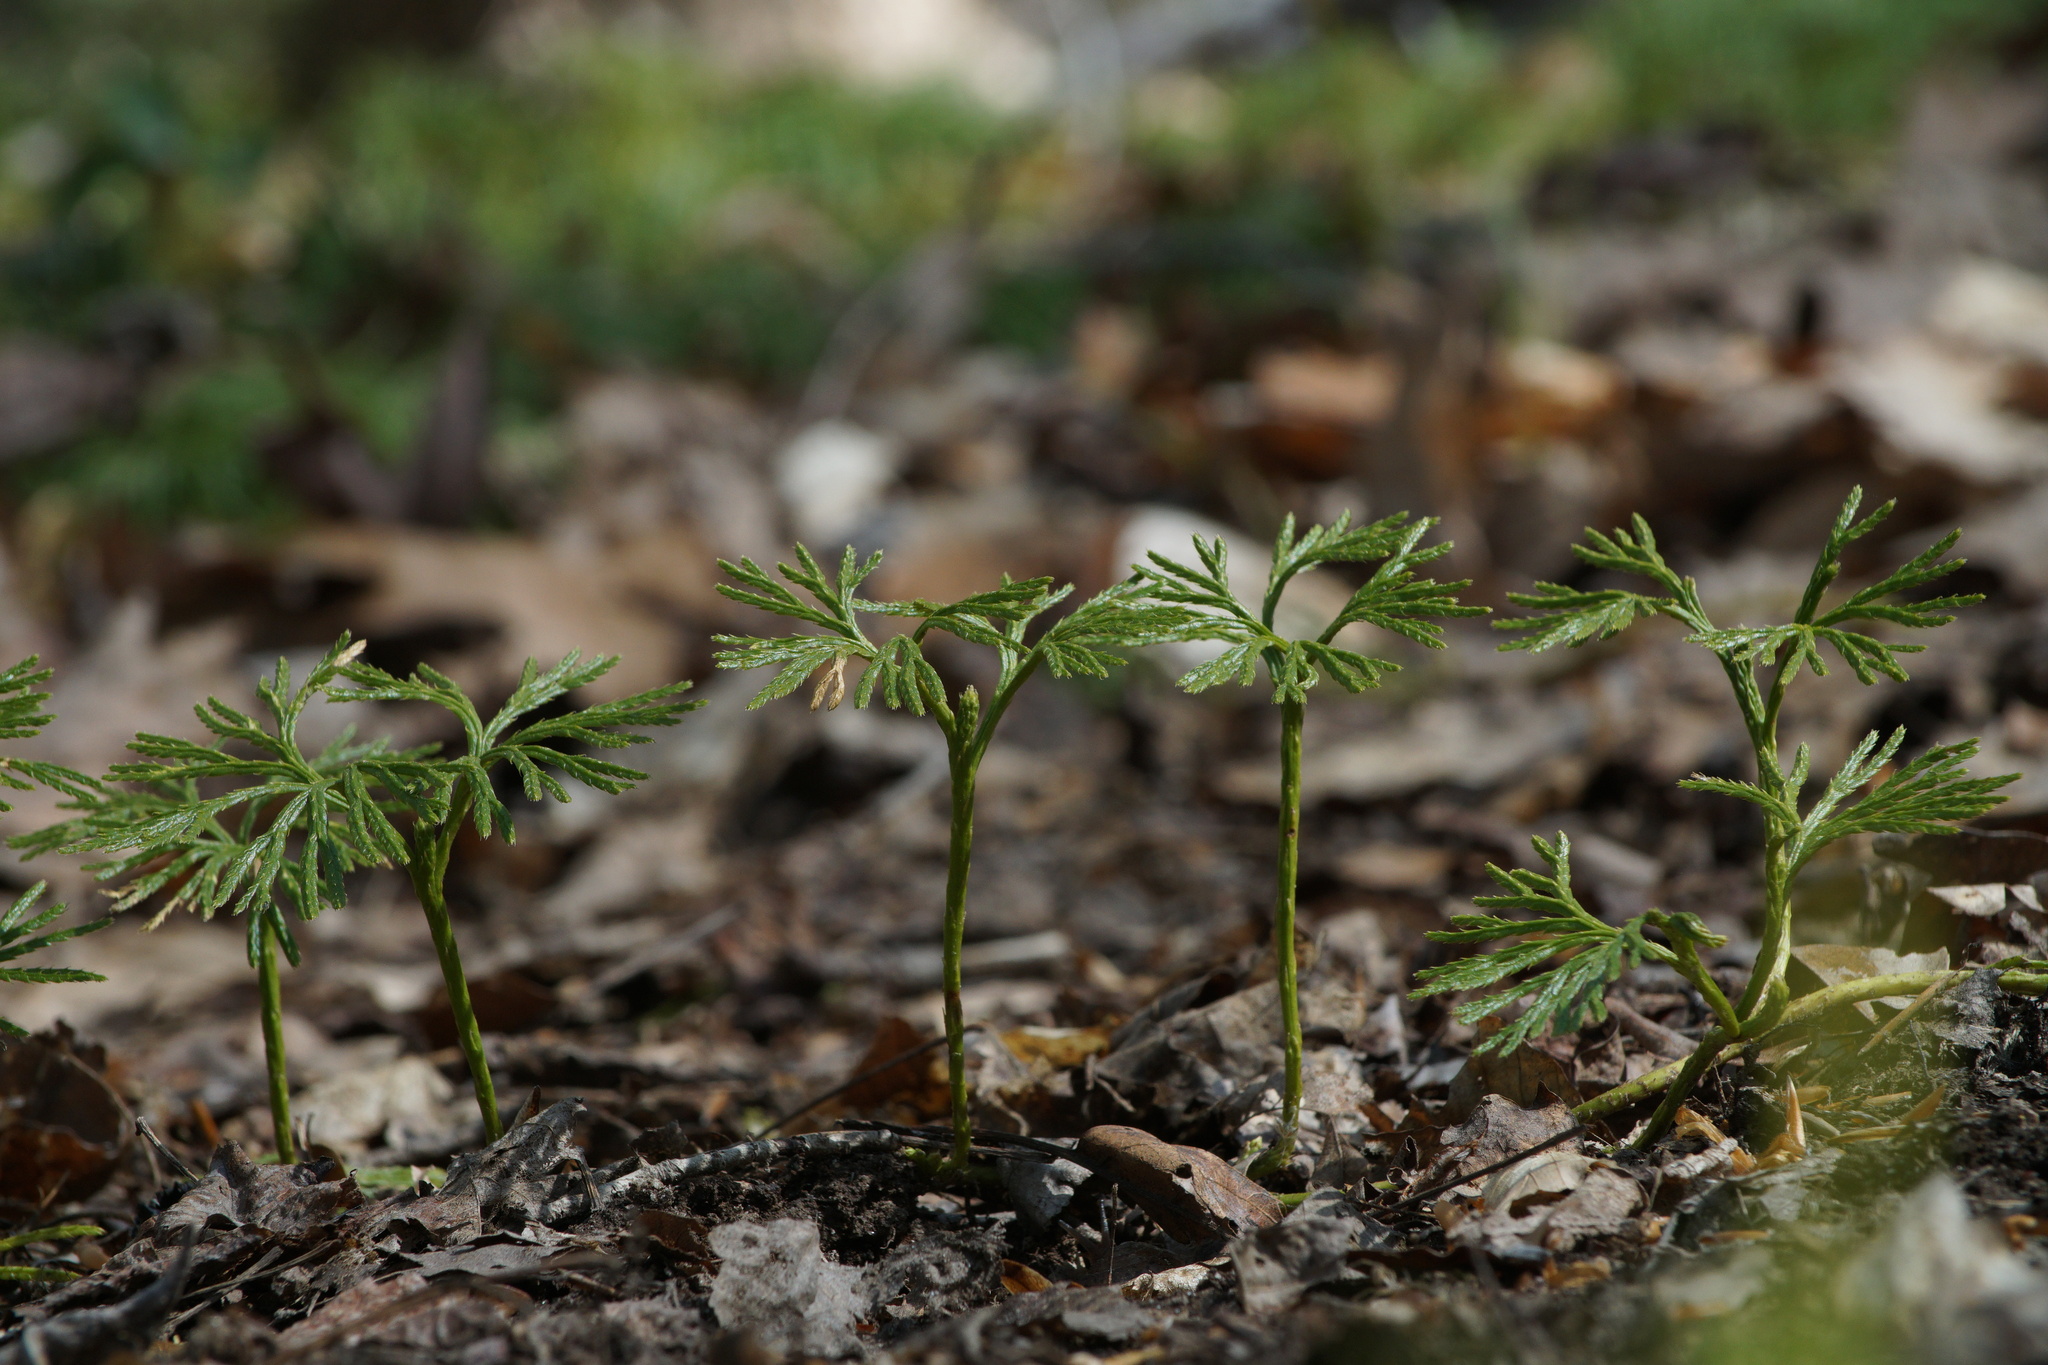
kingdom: Plantae
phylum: Tracheophyta
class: Lycopodiopsida
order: Lycopodiales
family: Lycopodiaceae
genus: Diphasiastrum
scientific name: Diphasiastrum digitatum
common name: Southern running-pine
